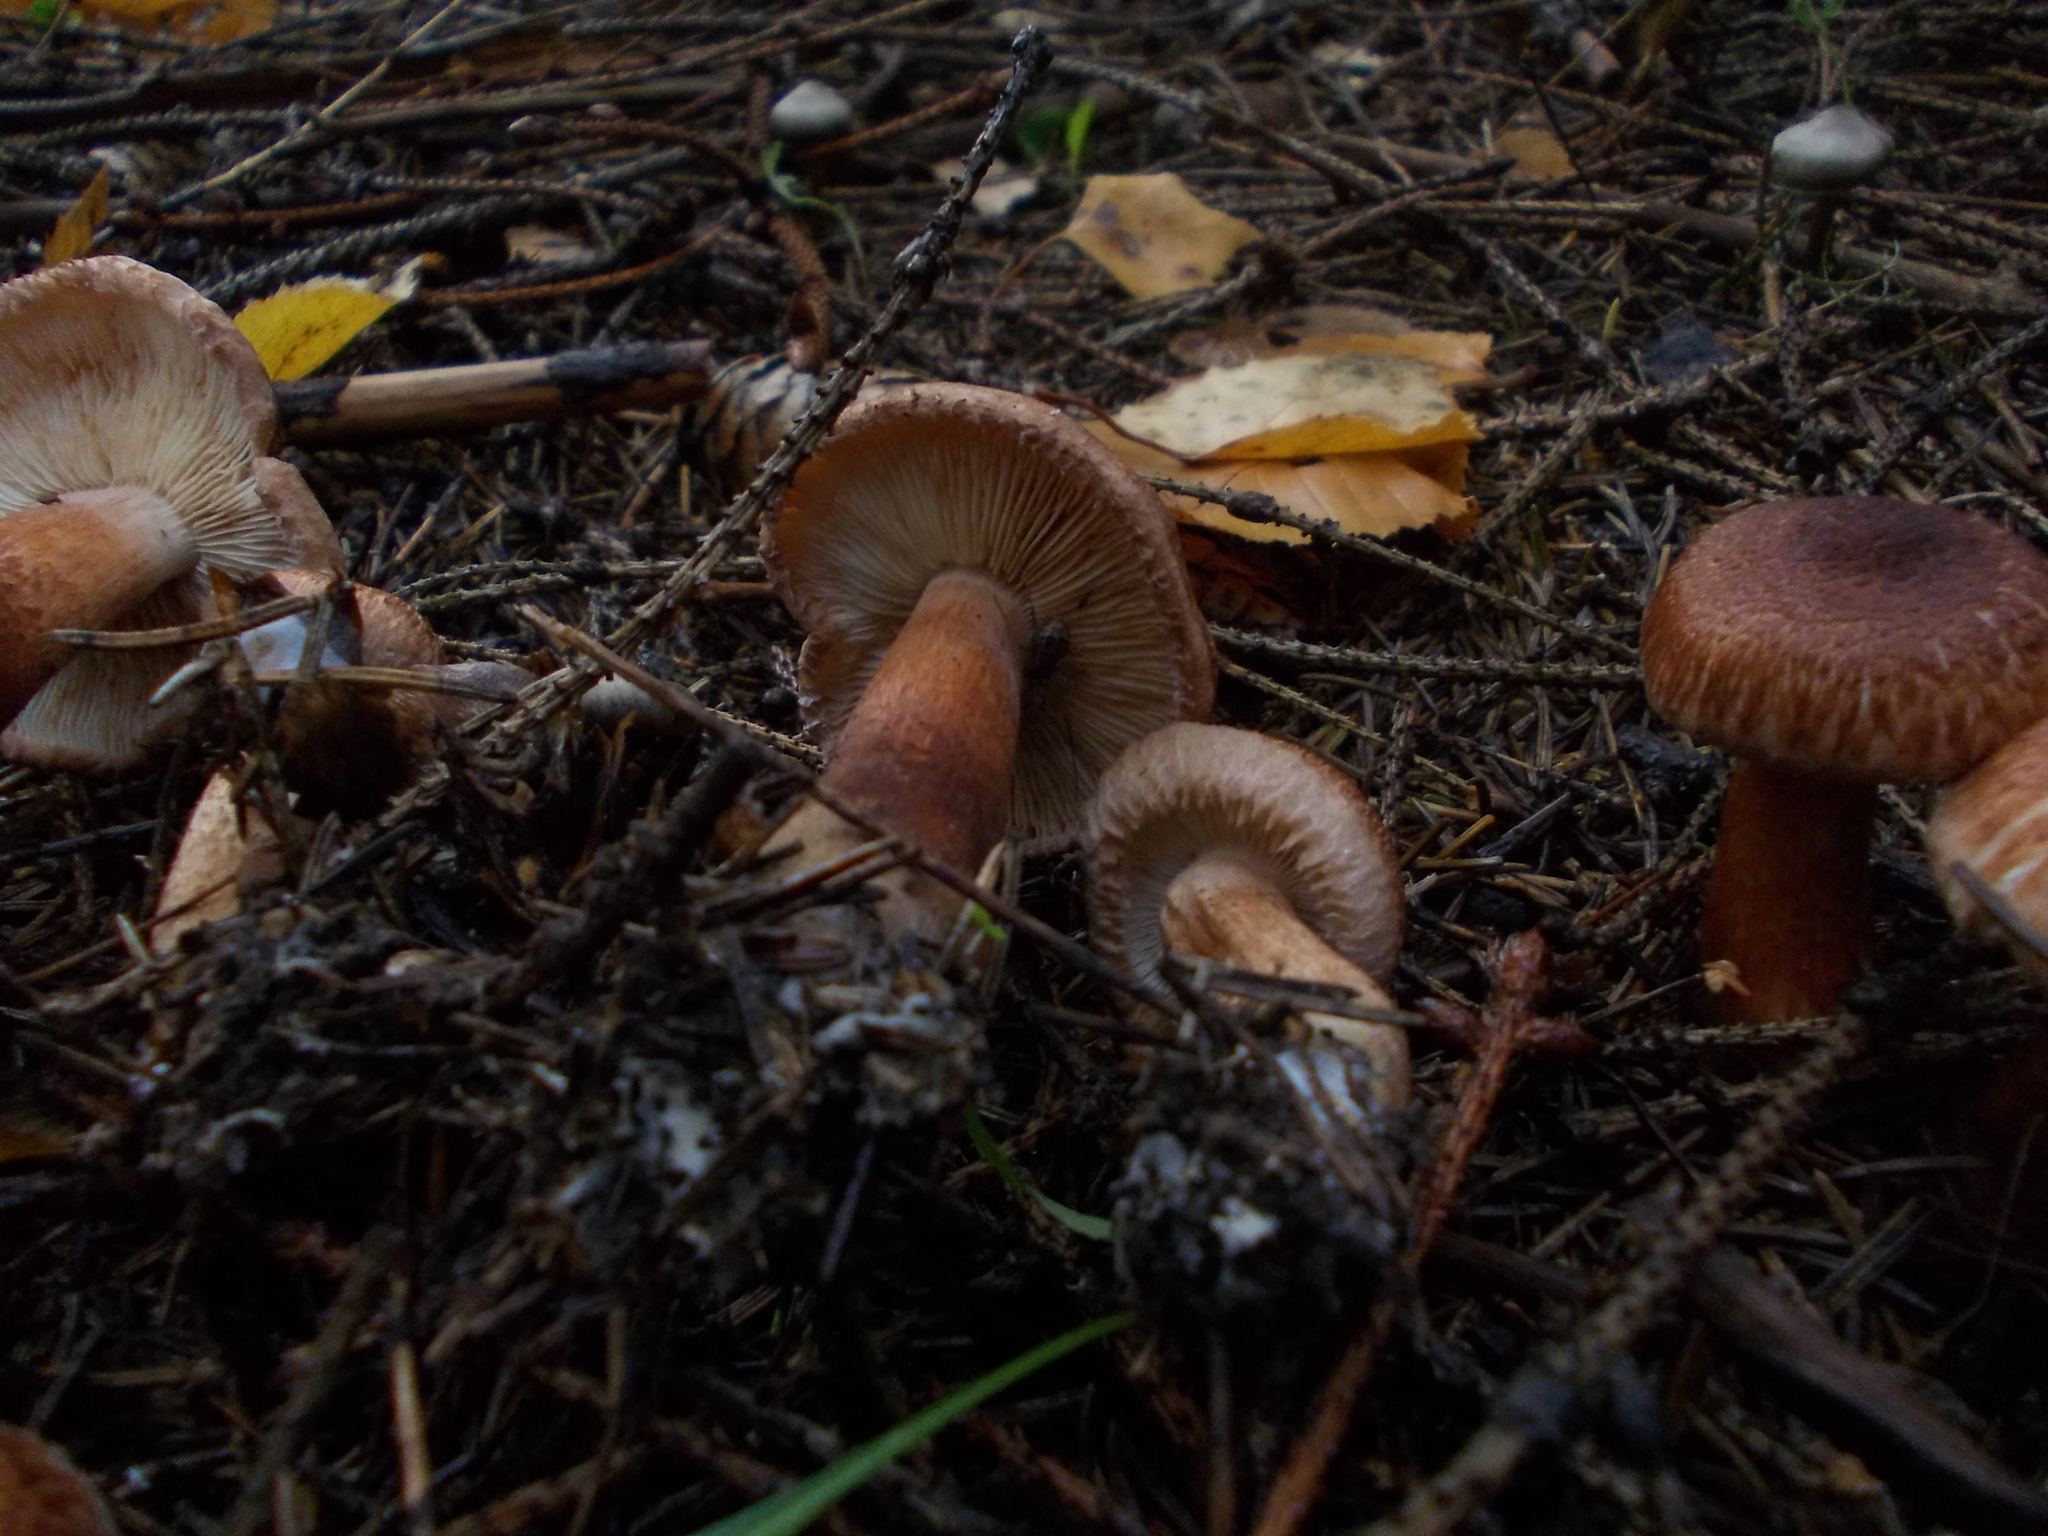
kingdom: Fungi
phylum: Basidiomycota
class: Agaricomycetes
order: Agaricales
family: Tricholomataceae
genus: Tricholoma
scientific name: Tricholoma vaccinum
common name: Scaly knight
